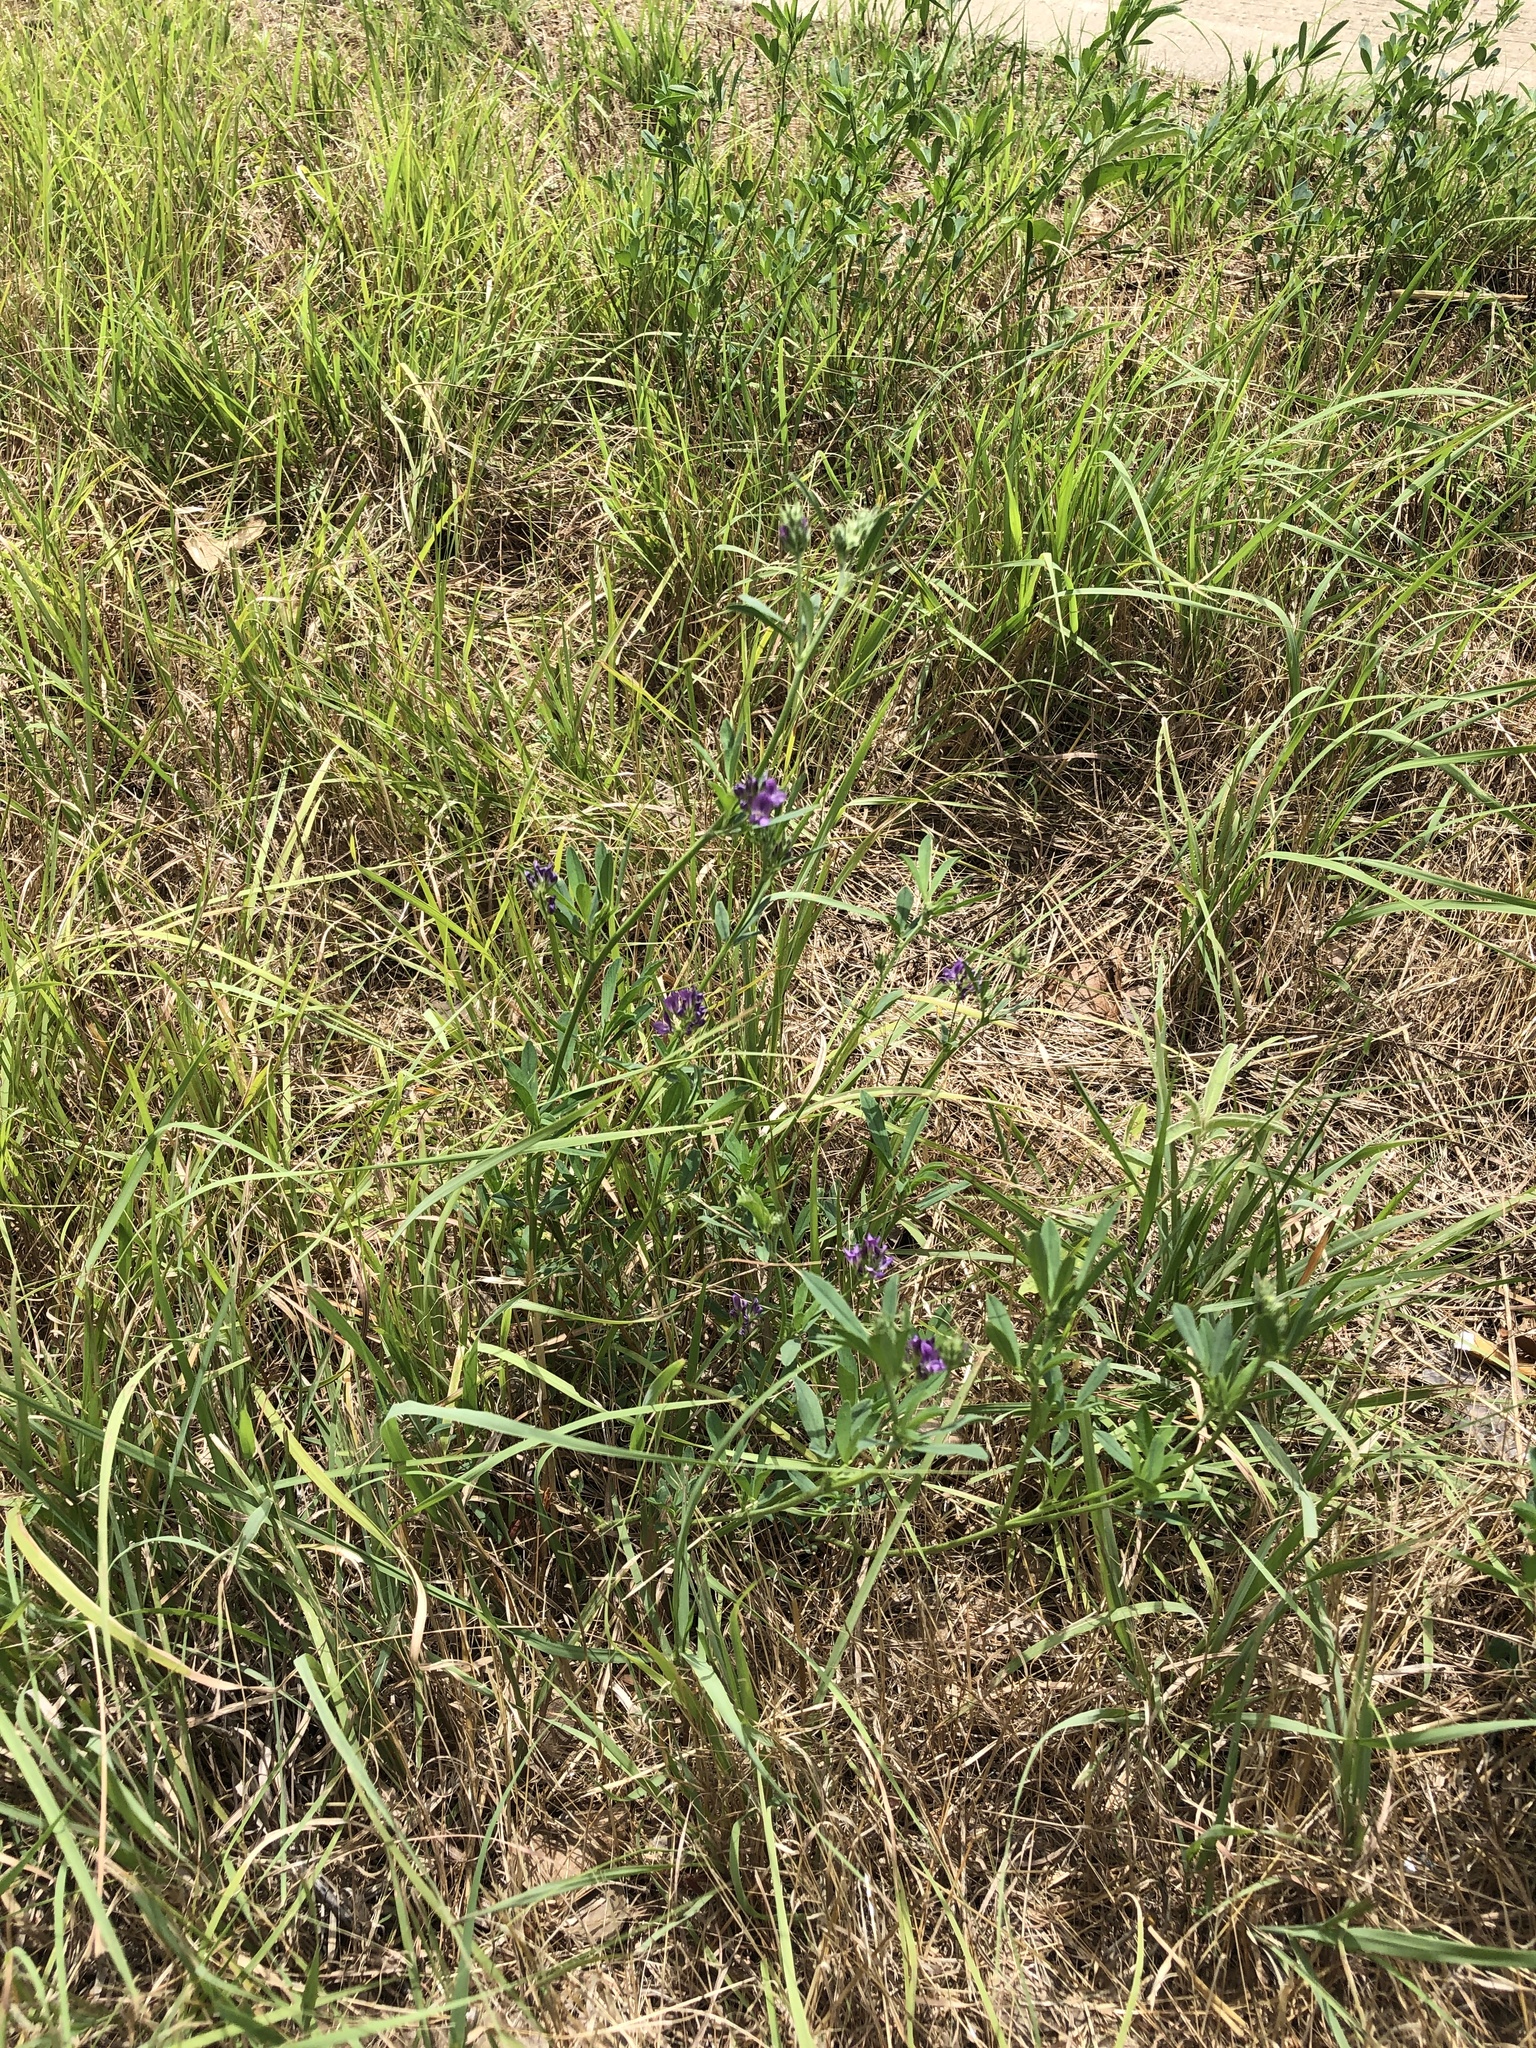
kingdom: Plantae
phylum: Tracheophyta
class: Magnoliopsida
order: Fabales
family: Fabaceae
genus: Medicago
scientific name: Medicago sativa
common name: Alfalfa
